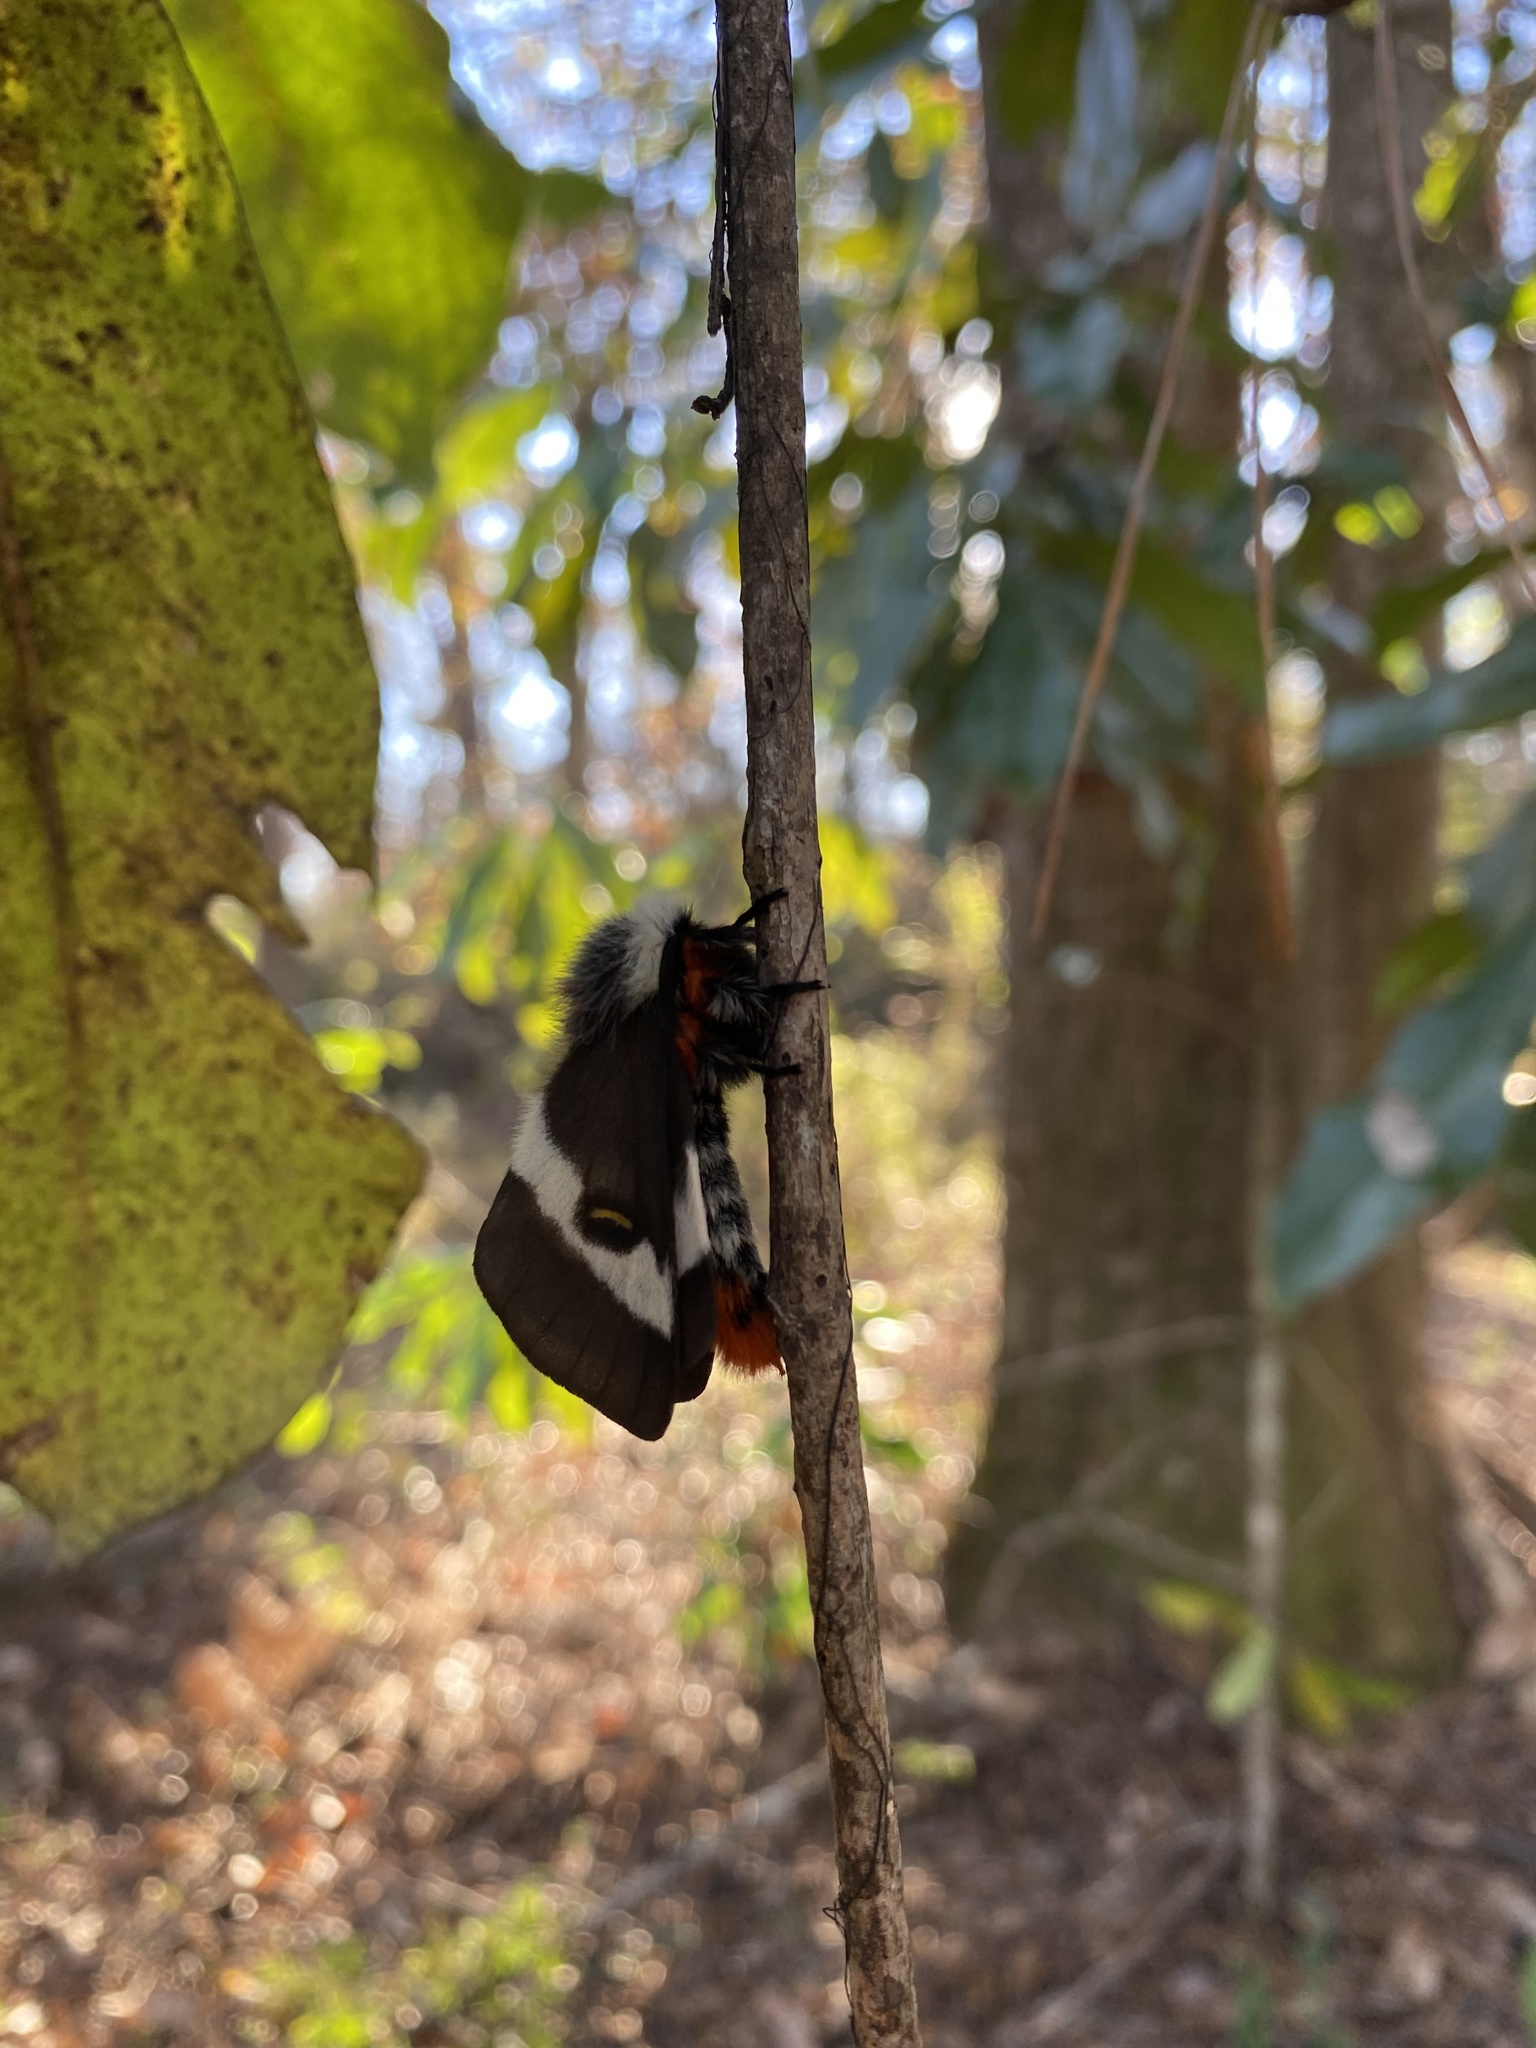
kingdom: Animalia
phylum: Arthropoda
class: Insecta
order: Lepidoptera
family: Saturniidae
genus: Hemileuca
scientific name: Hemileuca maia
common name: Eastern buckmoth
